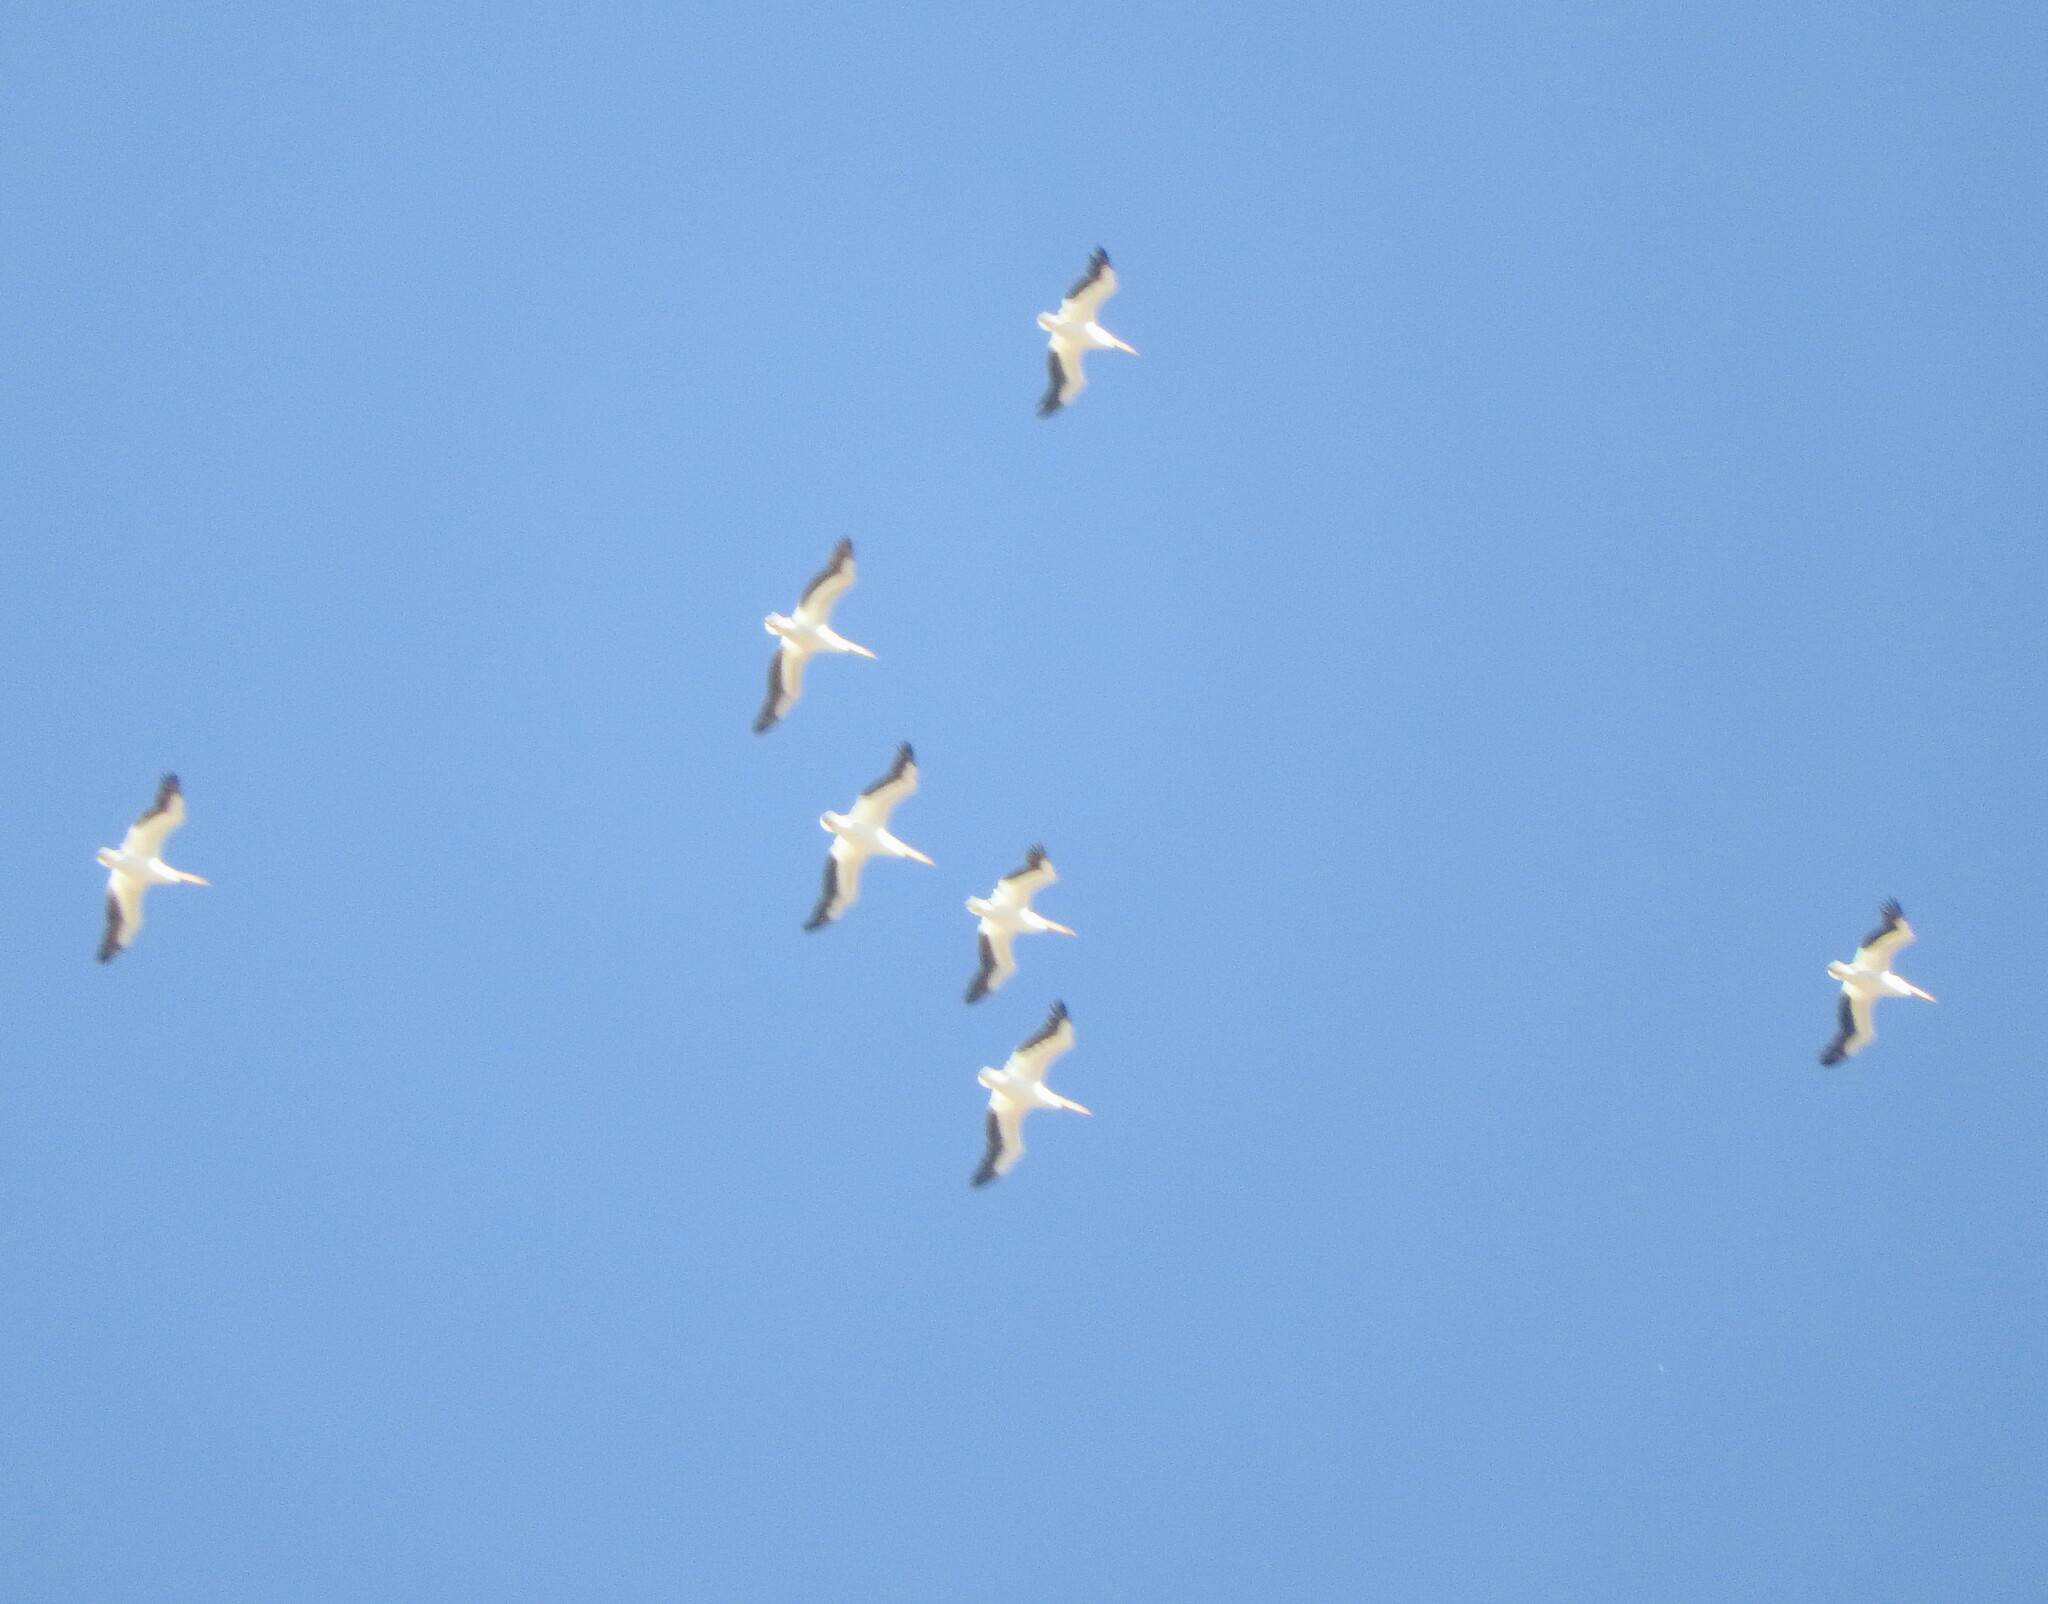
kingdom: Animalia
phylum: Chordata
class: Aves
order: Pelecaniformes
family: Pelecanidae
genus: Pelecanus
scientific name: Pelecanus erythrorhynchos
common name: American white pelican
